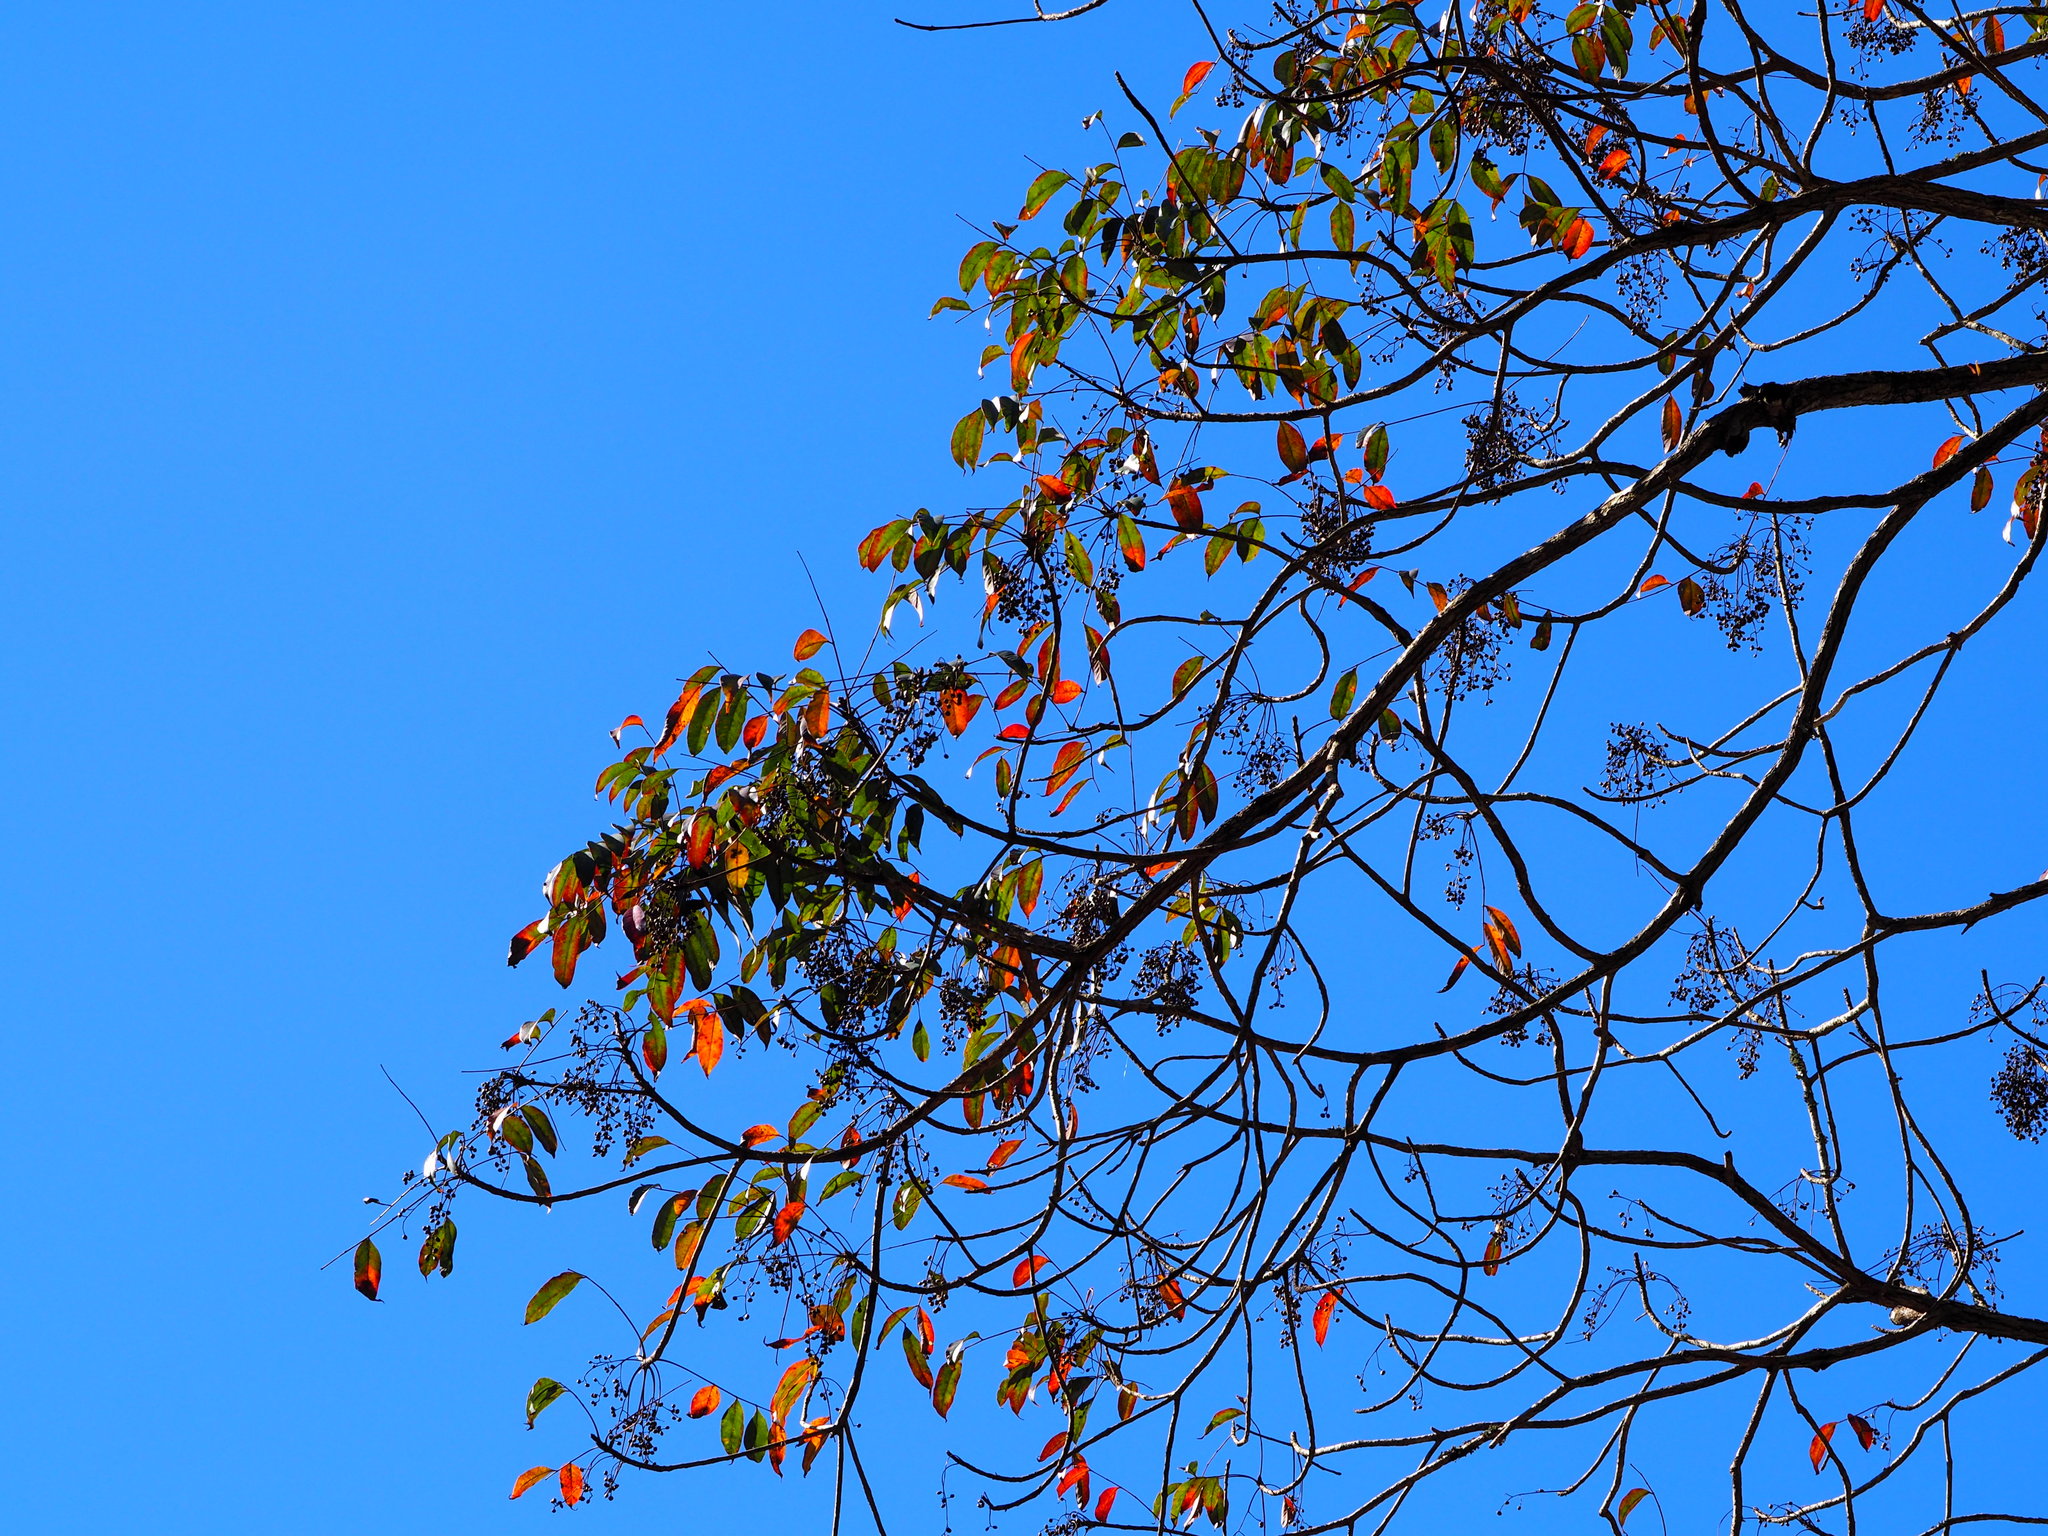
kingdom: Plantae
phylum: Tracheophyta
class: Magnoliopsida
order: Sapindales
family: Anacardiaceae
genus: Toxicodendron
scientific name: Toxicodendron succedaneum
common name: Wax tree
